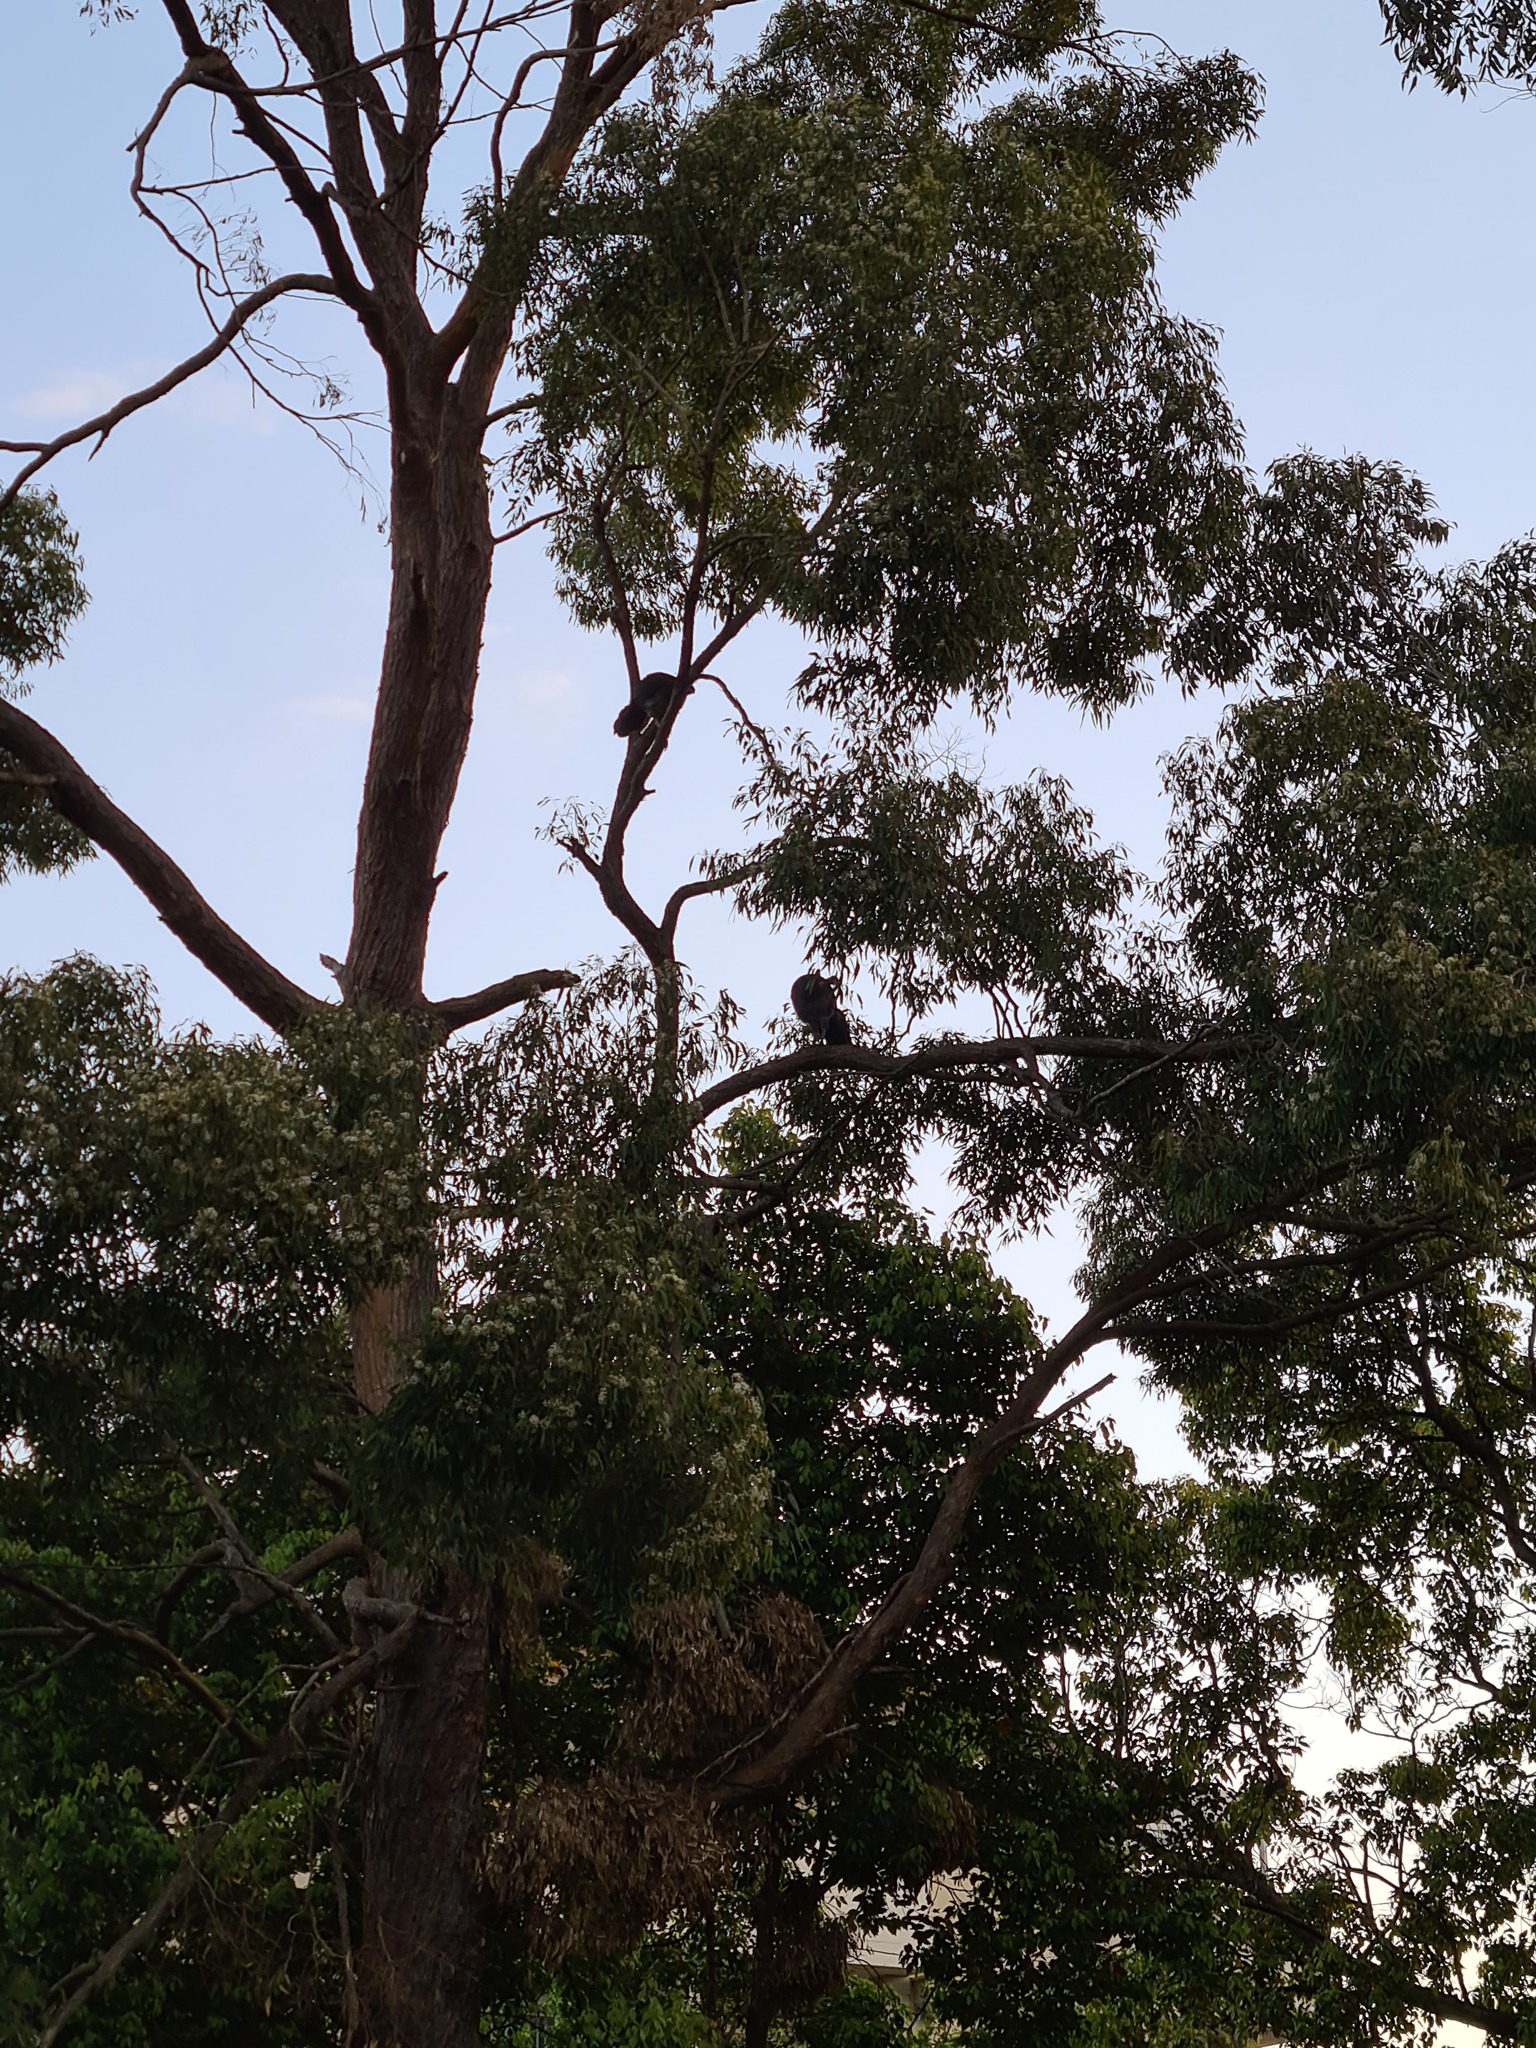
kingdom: Animalia
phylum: Chordata
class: Aves
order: Galliformes
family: Megapodiidae
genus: Alectura
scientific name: Alectura lathami
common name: Australian brushturkey
